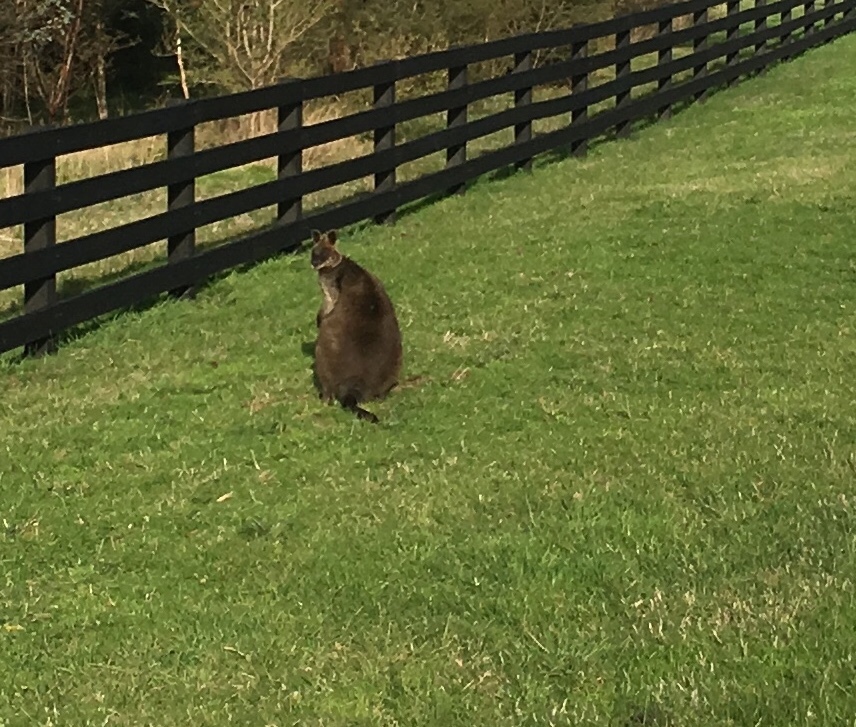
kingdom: Animalia
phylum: Chordata
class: Mammalia
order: Diprotodontia
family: Macropodidae
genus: Wallabia
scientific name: Wallabia bicolor
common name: Swamp wallaby
